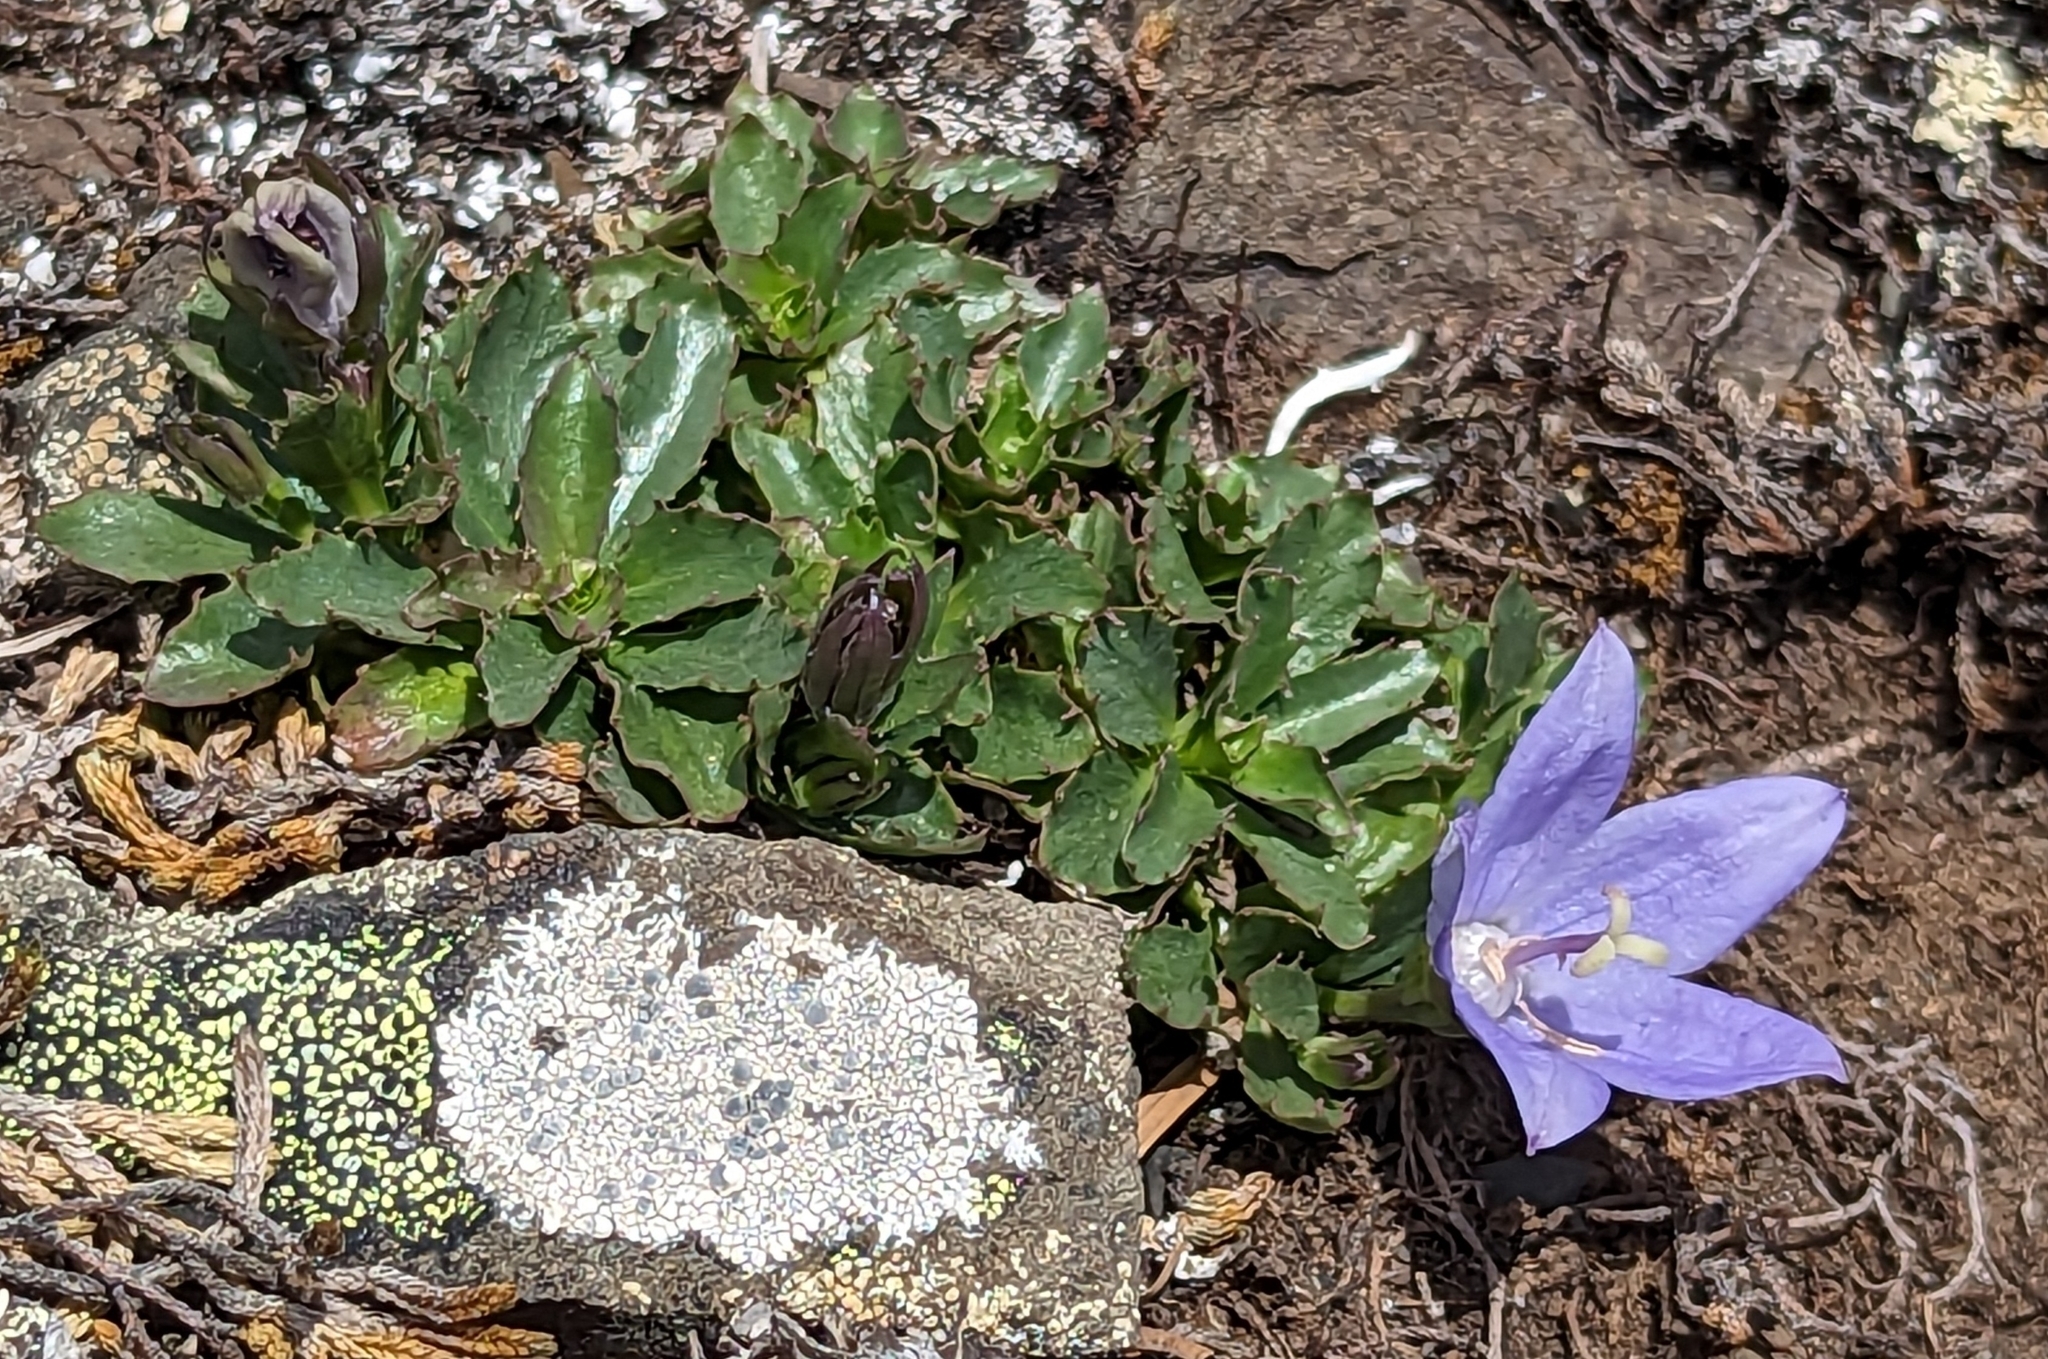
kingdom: Plantae
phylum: Tracheophyta
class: Magnoliopsida
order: Asterales
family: Campanulaceae
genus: Campanula
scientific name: Campanula piperi
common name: Olympic bellflower
